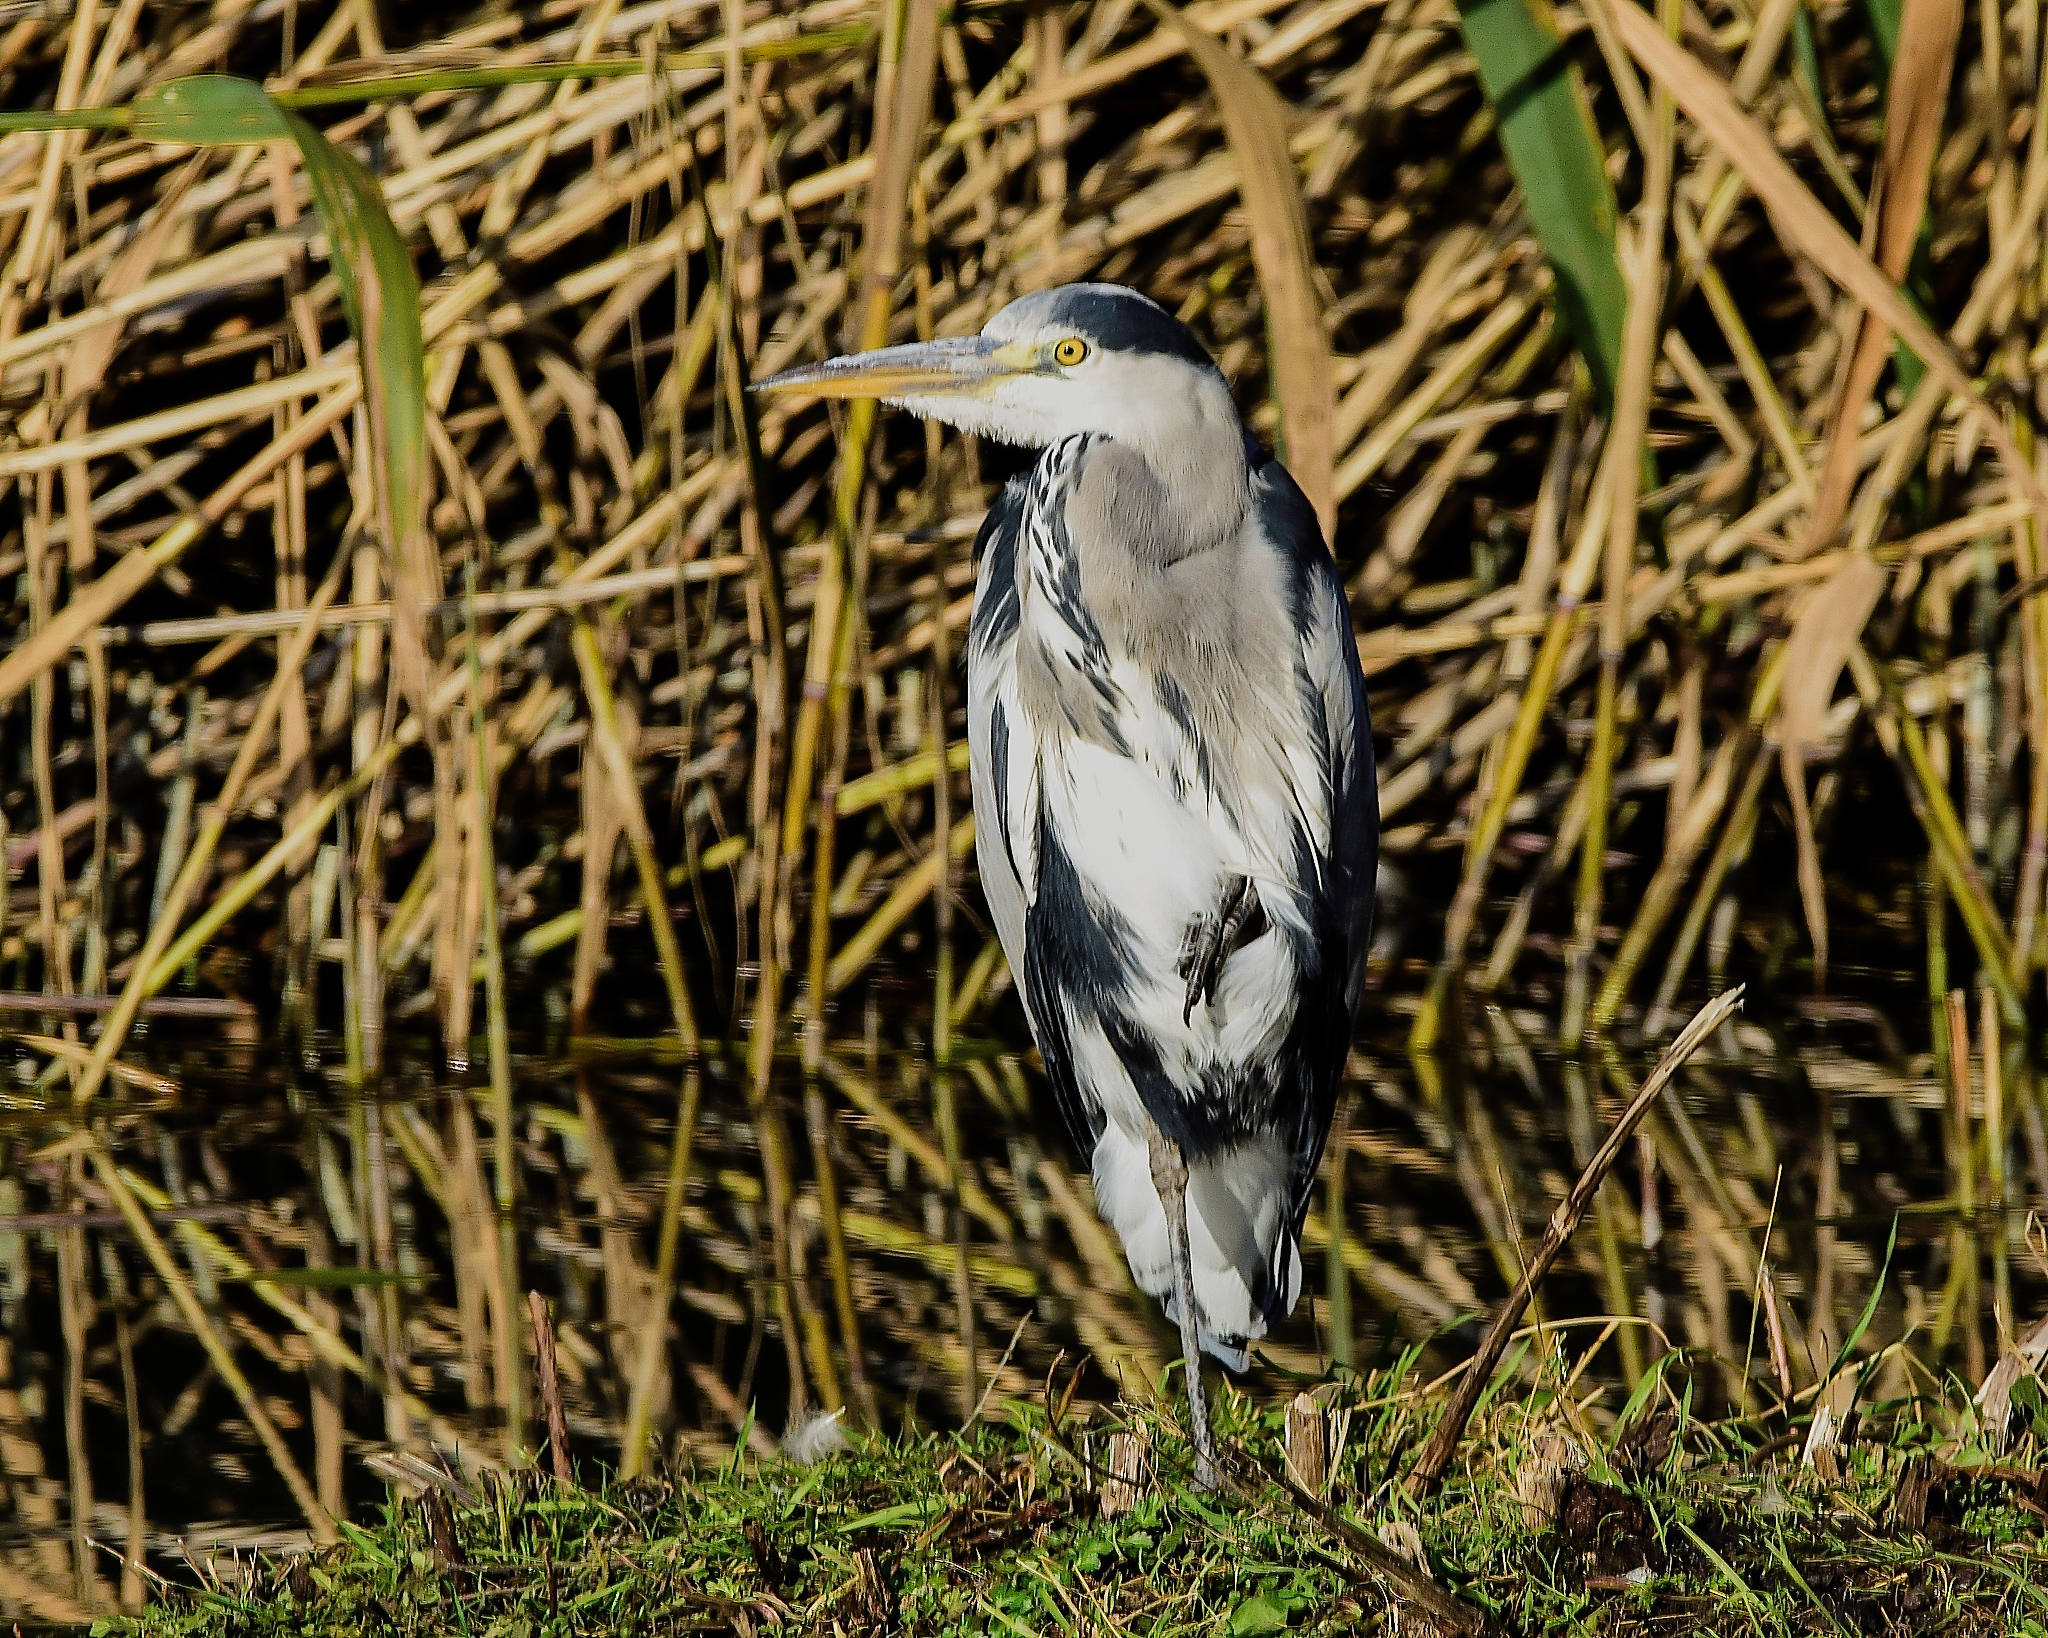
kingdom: Animalia
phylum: Chordata
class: Aves
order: Pelecaniformes
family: Ardeidae
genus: Ardea
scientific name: Ardea cinerea
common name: Grey heron
